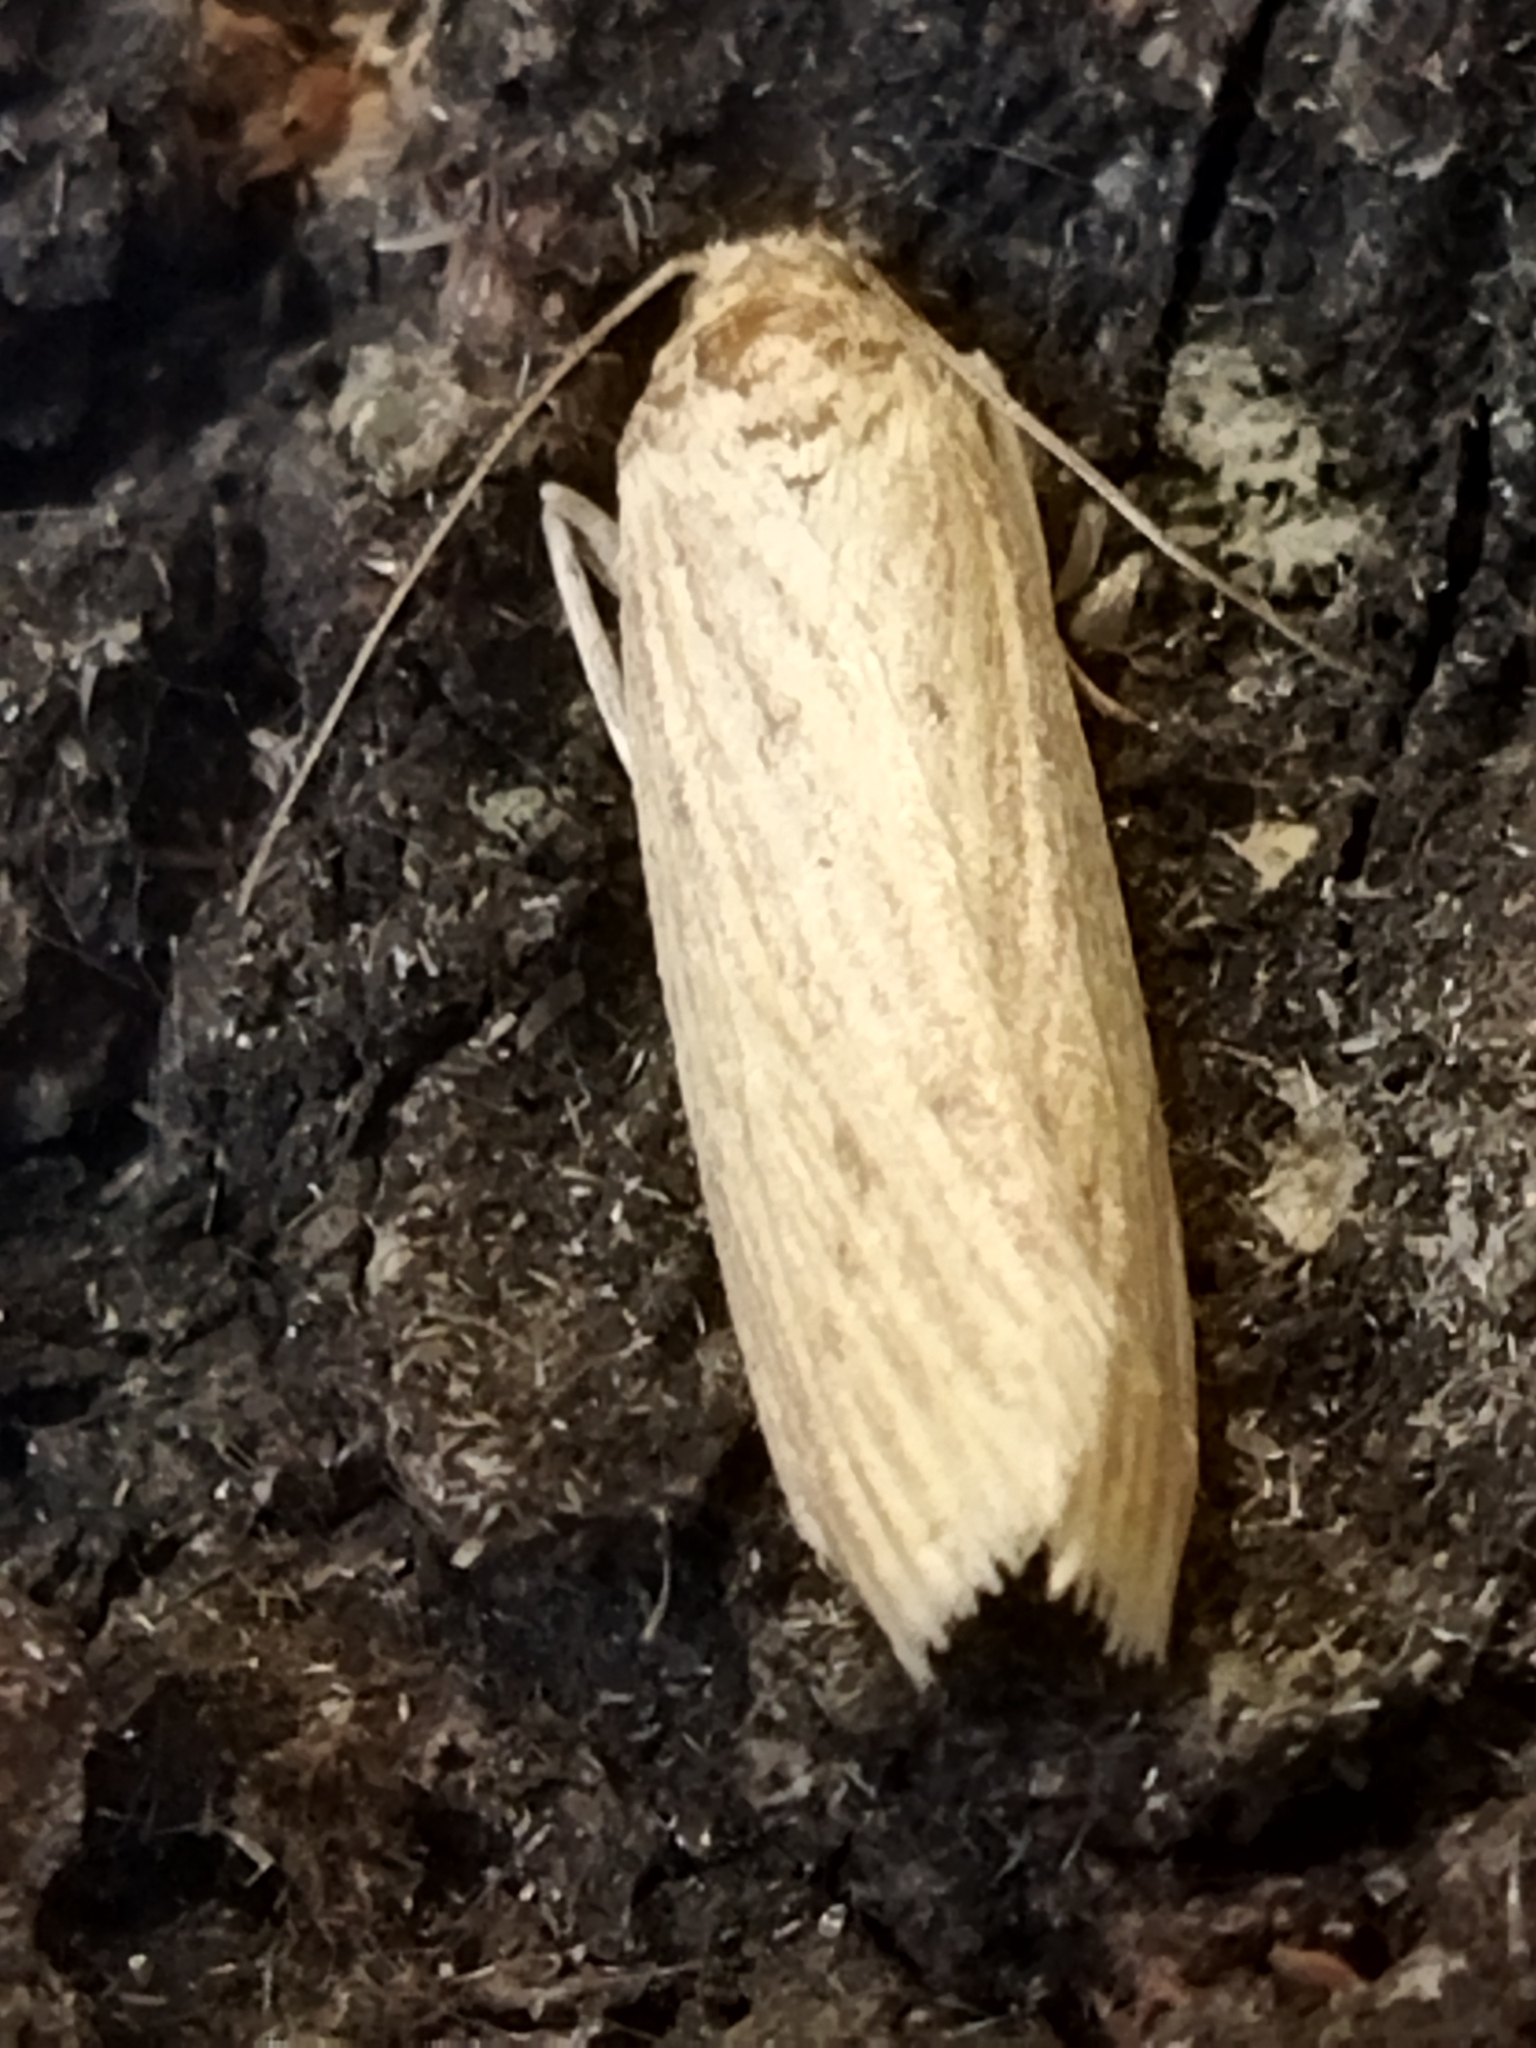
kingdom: Animalia
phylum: Arthropoda
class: Insecta
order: Lepidoptera
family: Pyralidae
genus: Ematheudes
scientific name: Ematheudes punctellus
